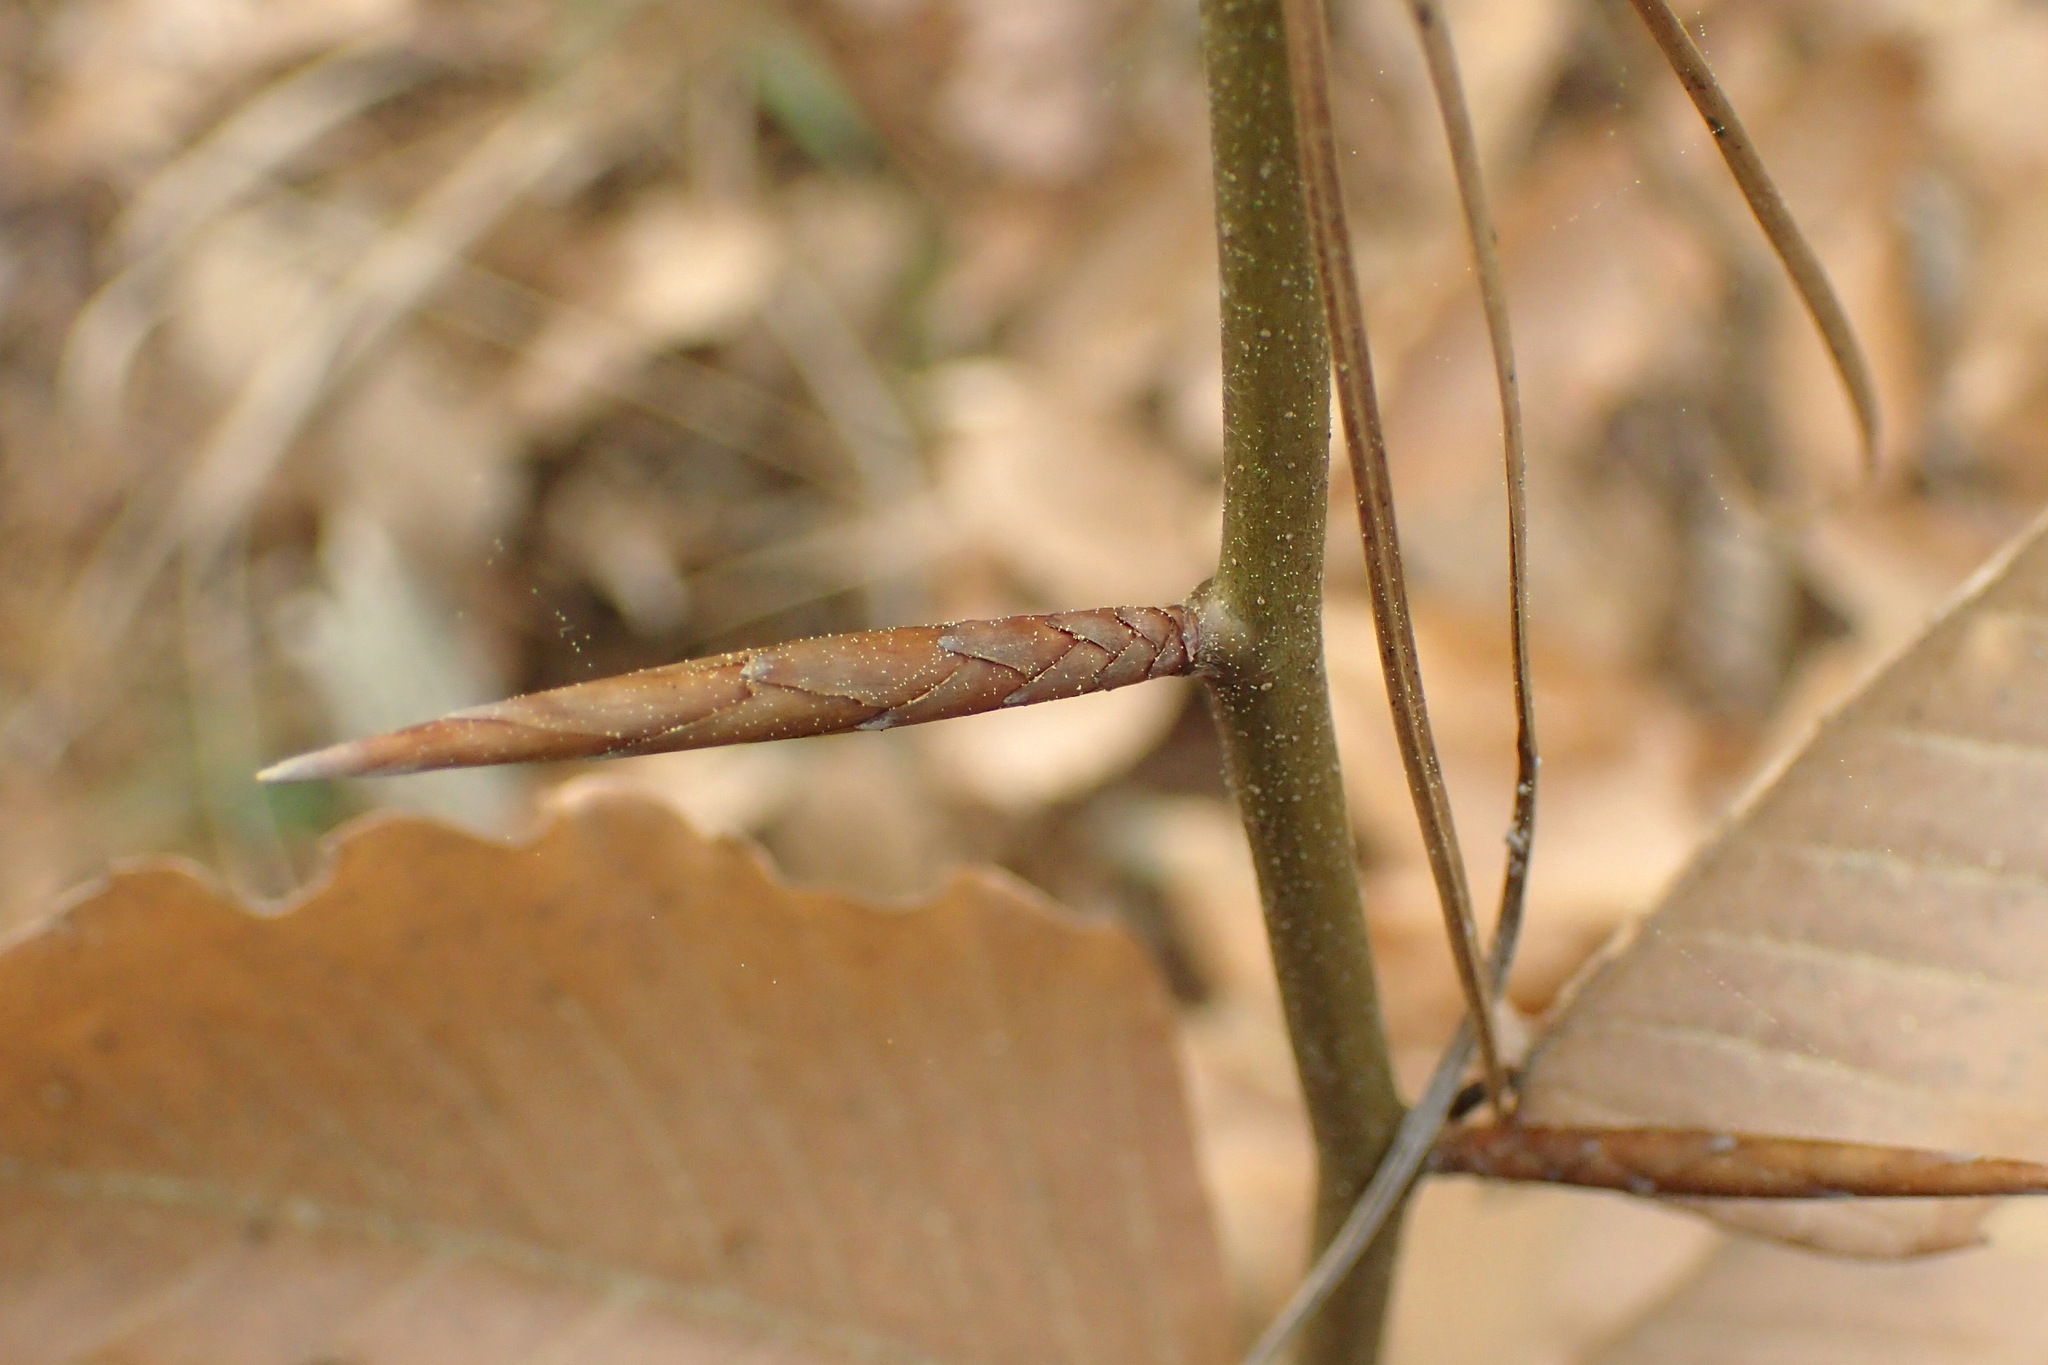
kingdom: Plantae
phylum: Tracheophyta
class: Magnoliopsida
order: Fagales
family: Fagaceae
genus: Fagus
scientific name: Fagus grandifolia
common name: American beech
